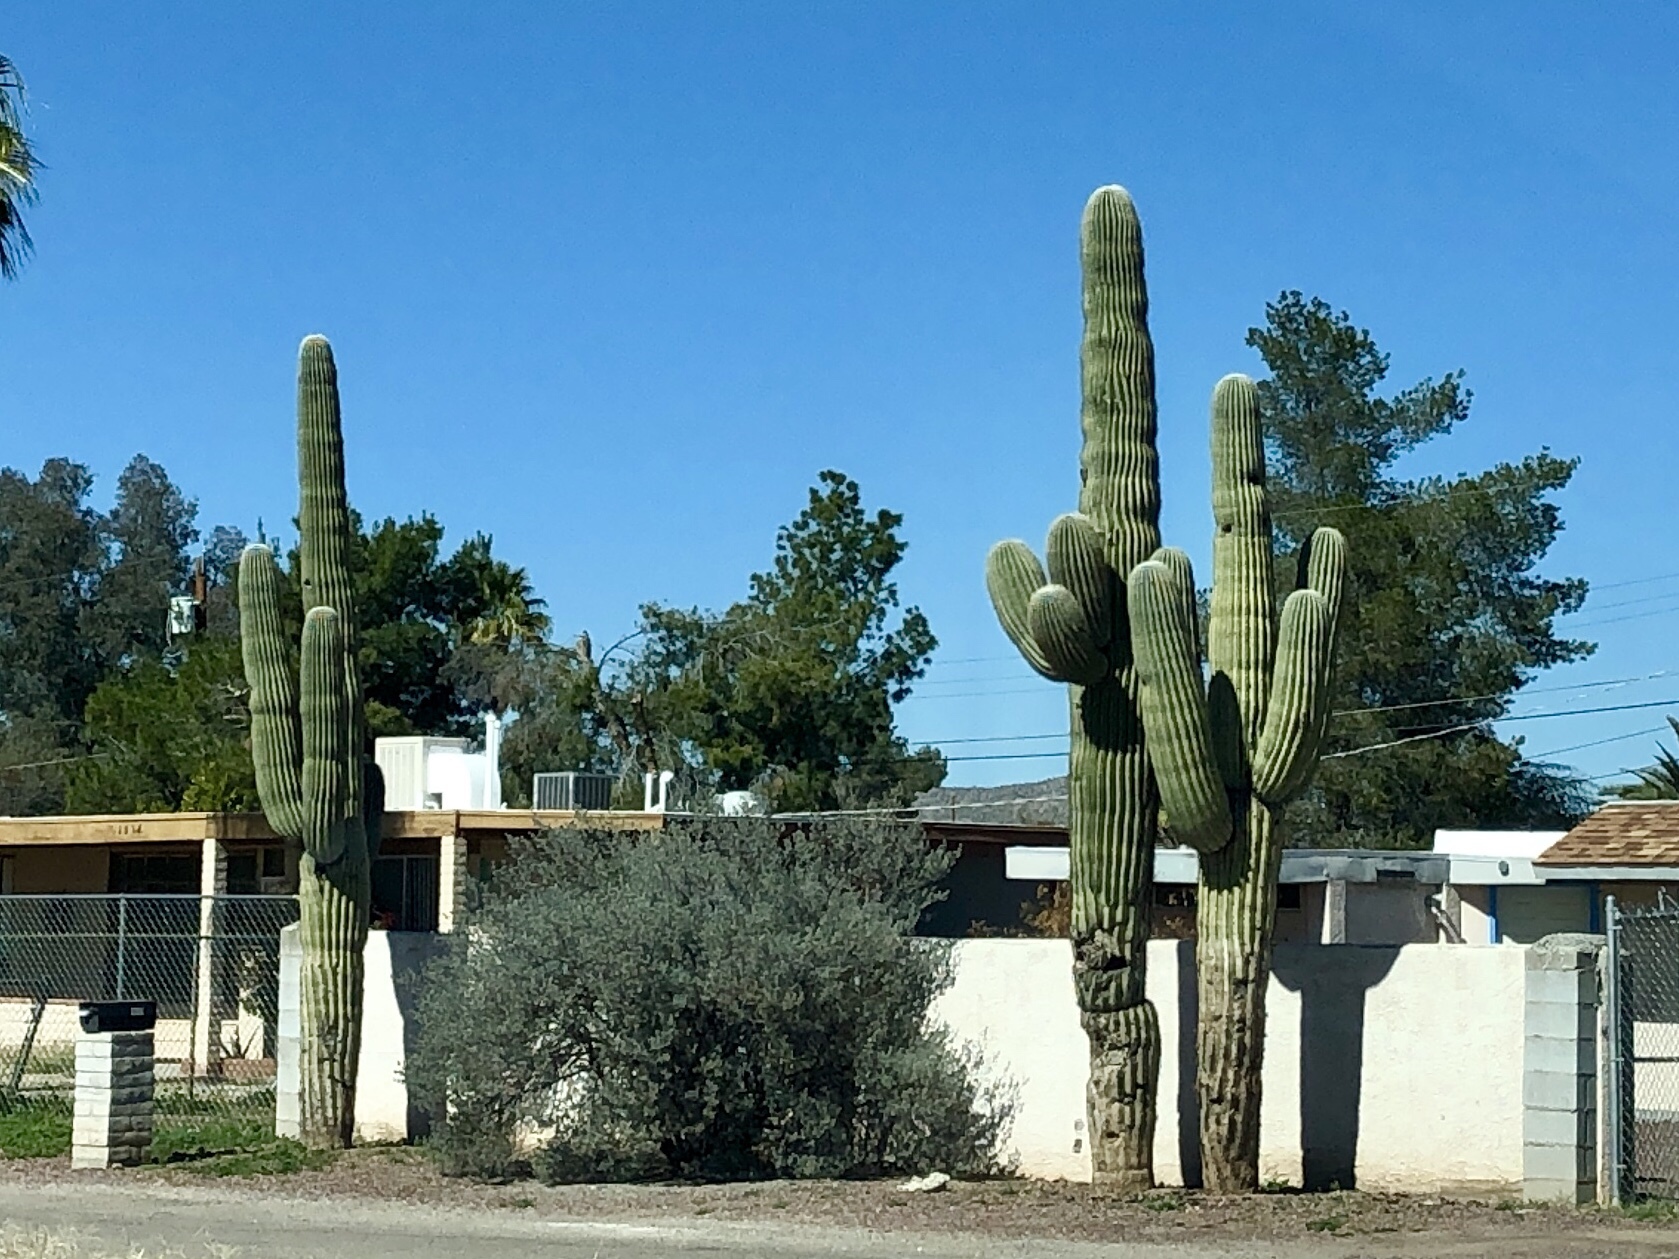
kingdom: Plantae
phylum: Tracheophyta
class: Magnoliopsida
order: Caryophyllales
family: Cactaceae
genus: Carnegiea
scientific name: Carnegiea gigantea
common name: Saguaro
